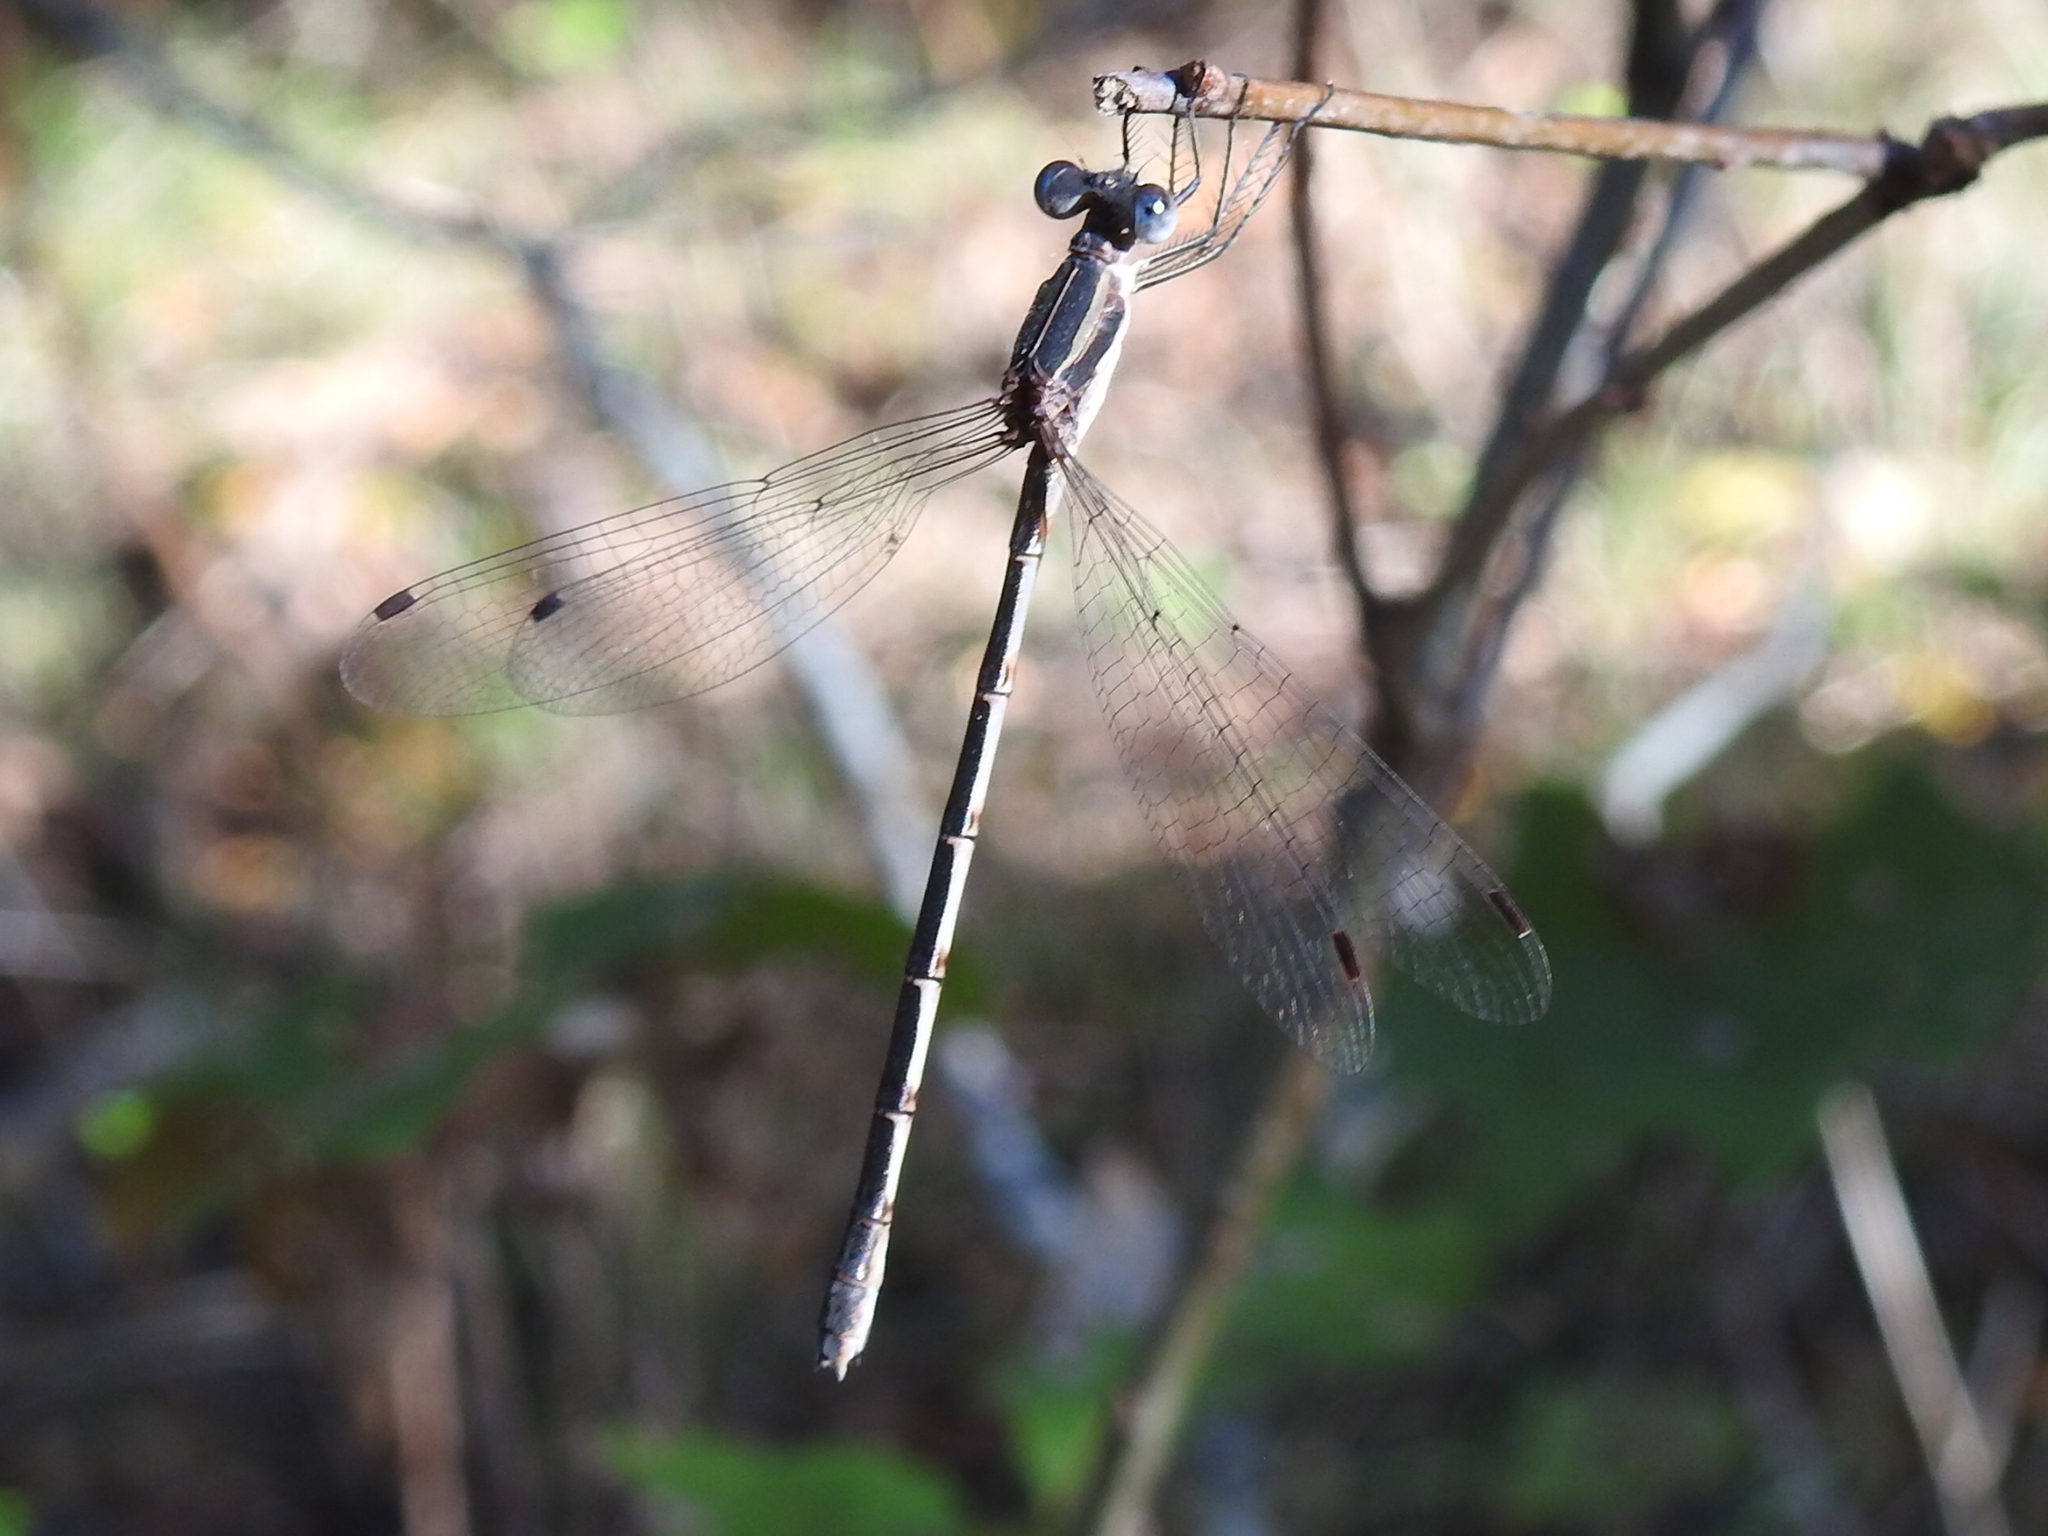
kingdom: Animalia
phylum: Arthropoda
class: Insecta
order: Odonata
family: Lestidae
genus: Lestes
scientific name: Lestes australis
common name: Southern spreadwing
